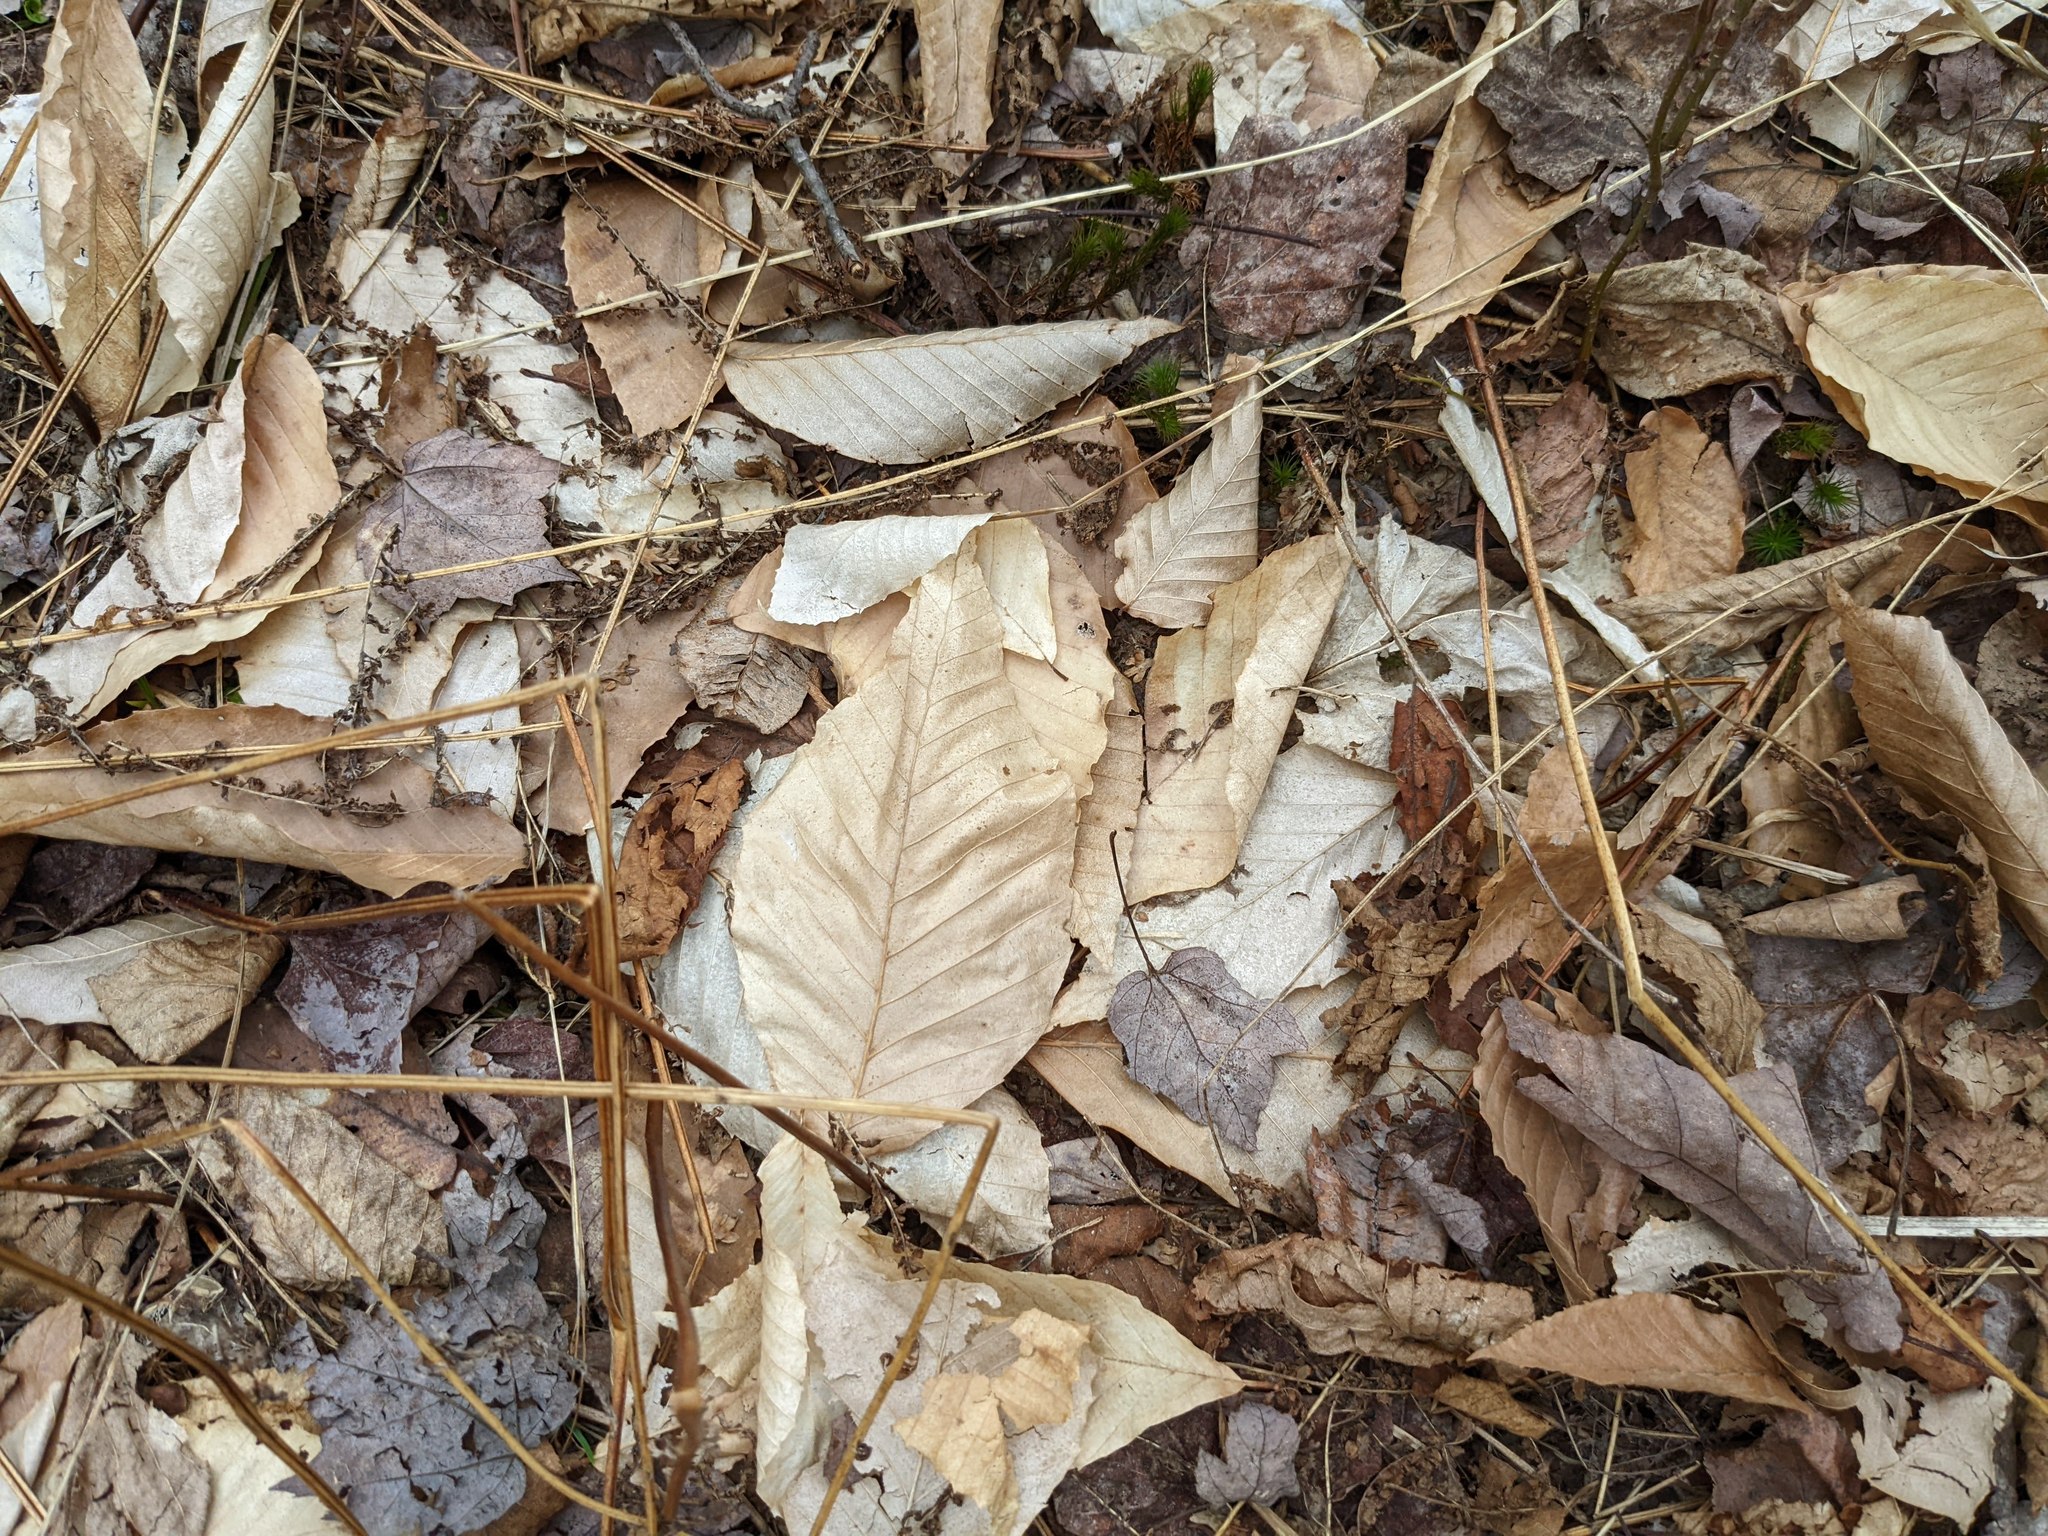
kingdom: Plantae
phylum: Tracheophyta
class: Magnoliopsida
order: Fagales
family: Fagaceae
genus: Fagus
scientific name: Fagus grandifolia
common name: American beech
